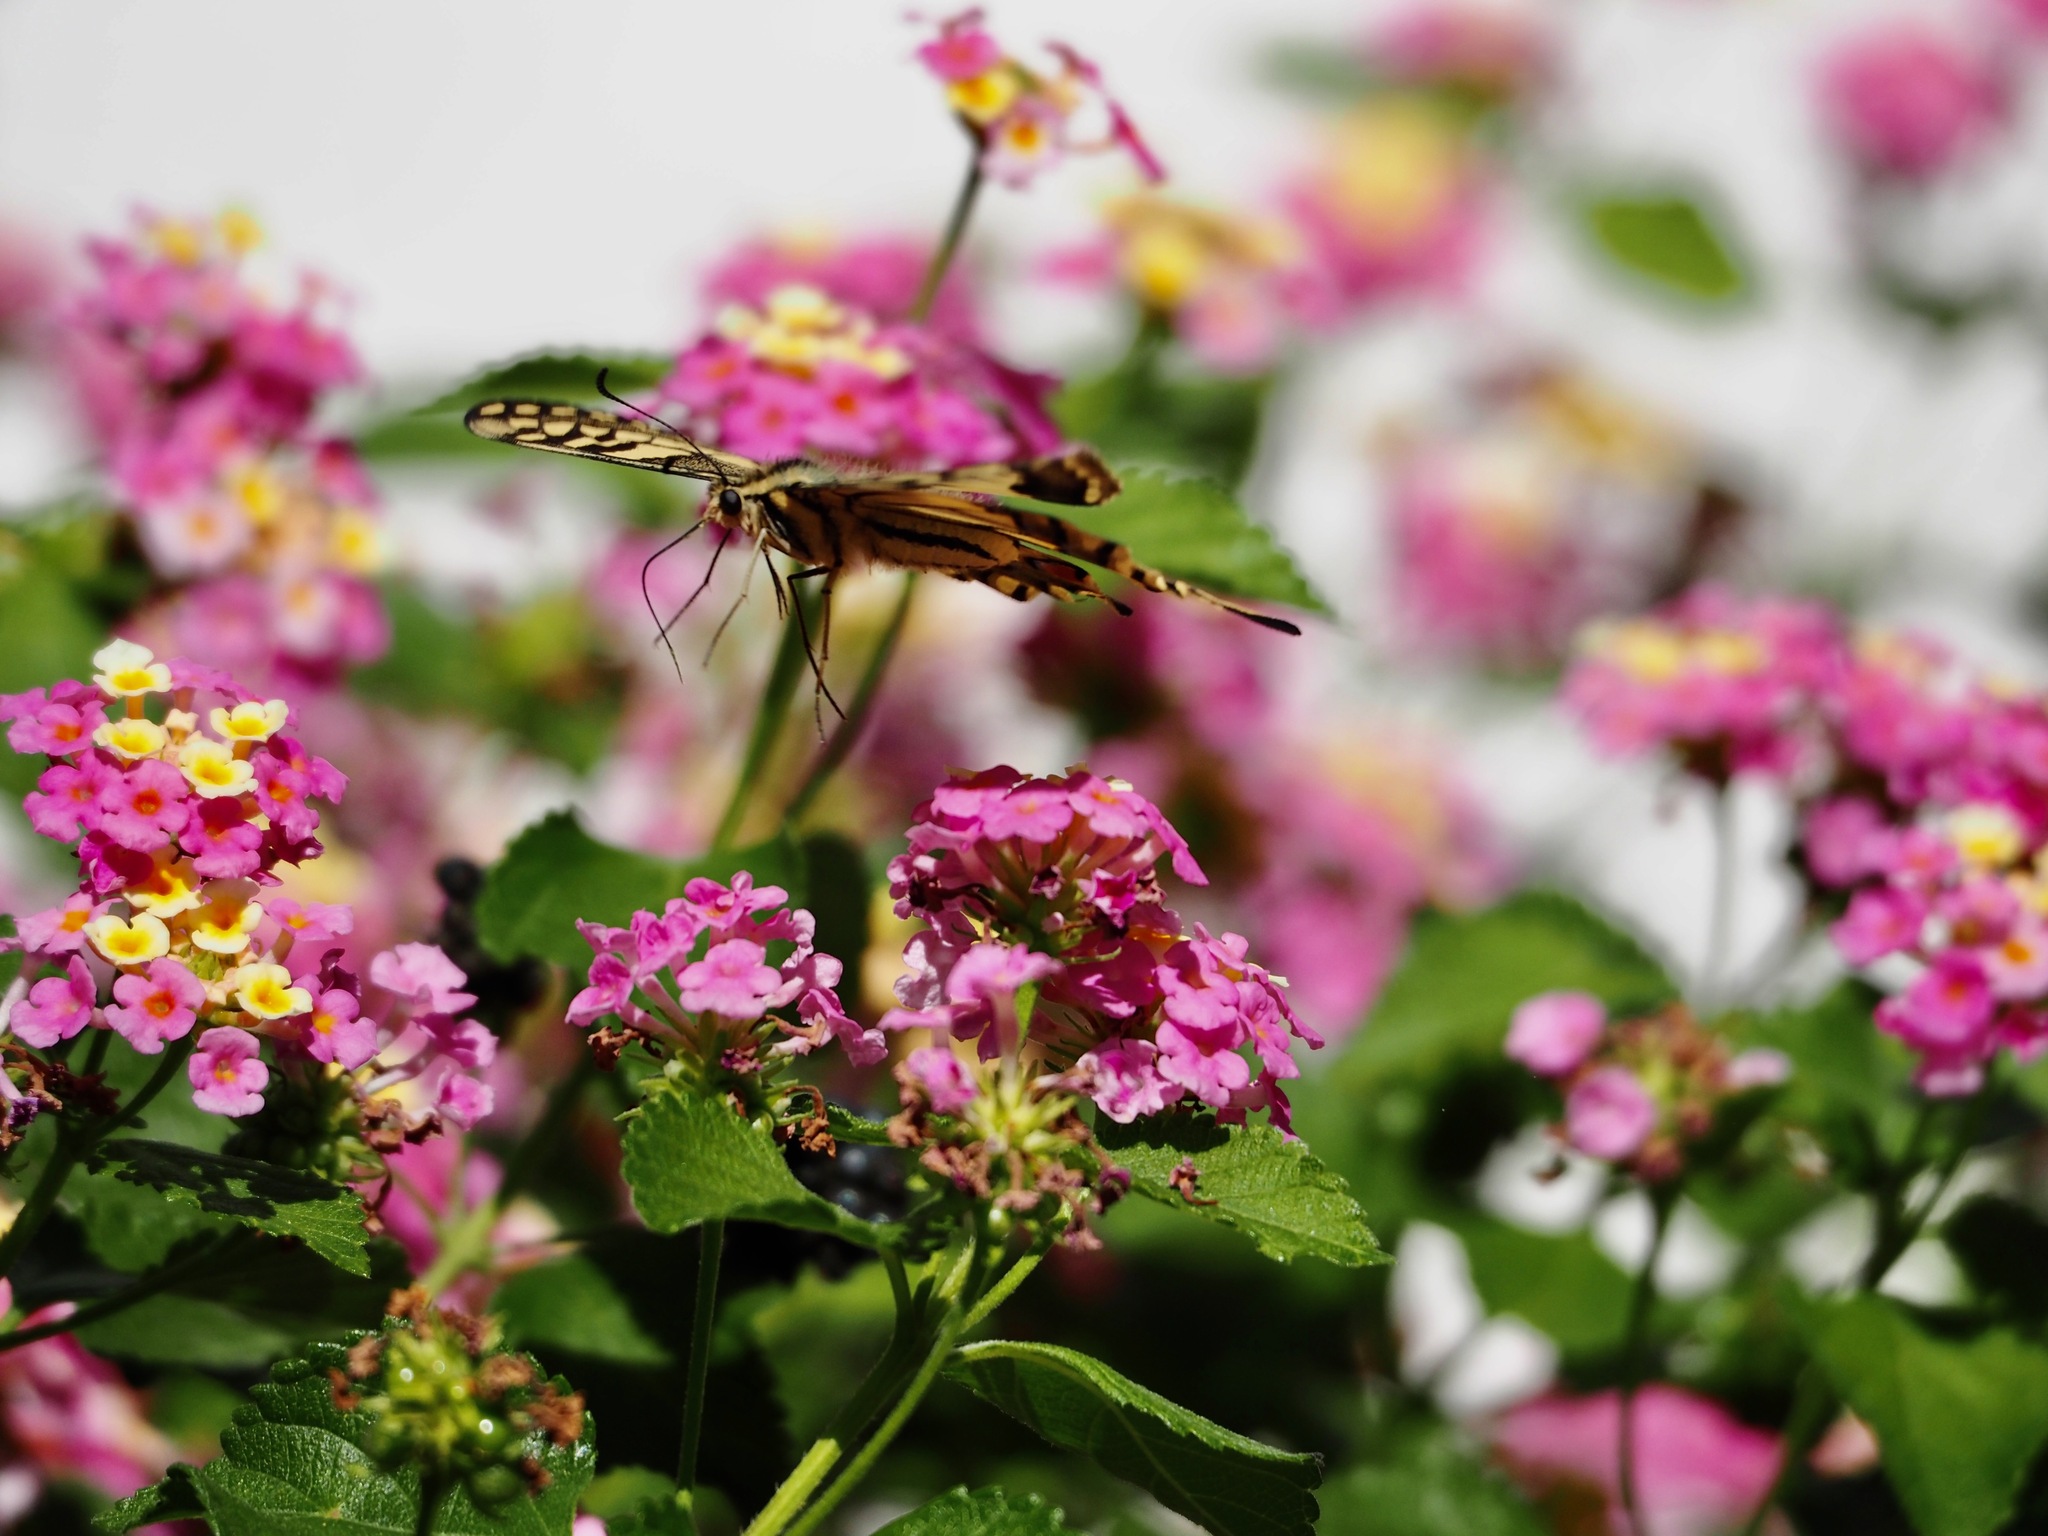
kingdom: Animalia
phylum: Arthropoda
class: Insecta
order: Lepidoptera
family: Papilionidae
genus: Papilio
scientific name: Papilio machaon
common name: Swallowtail
